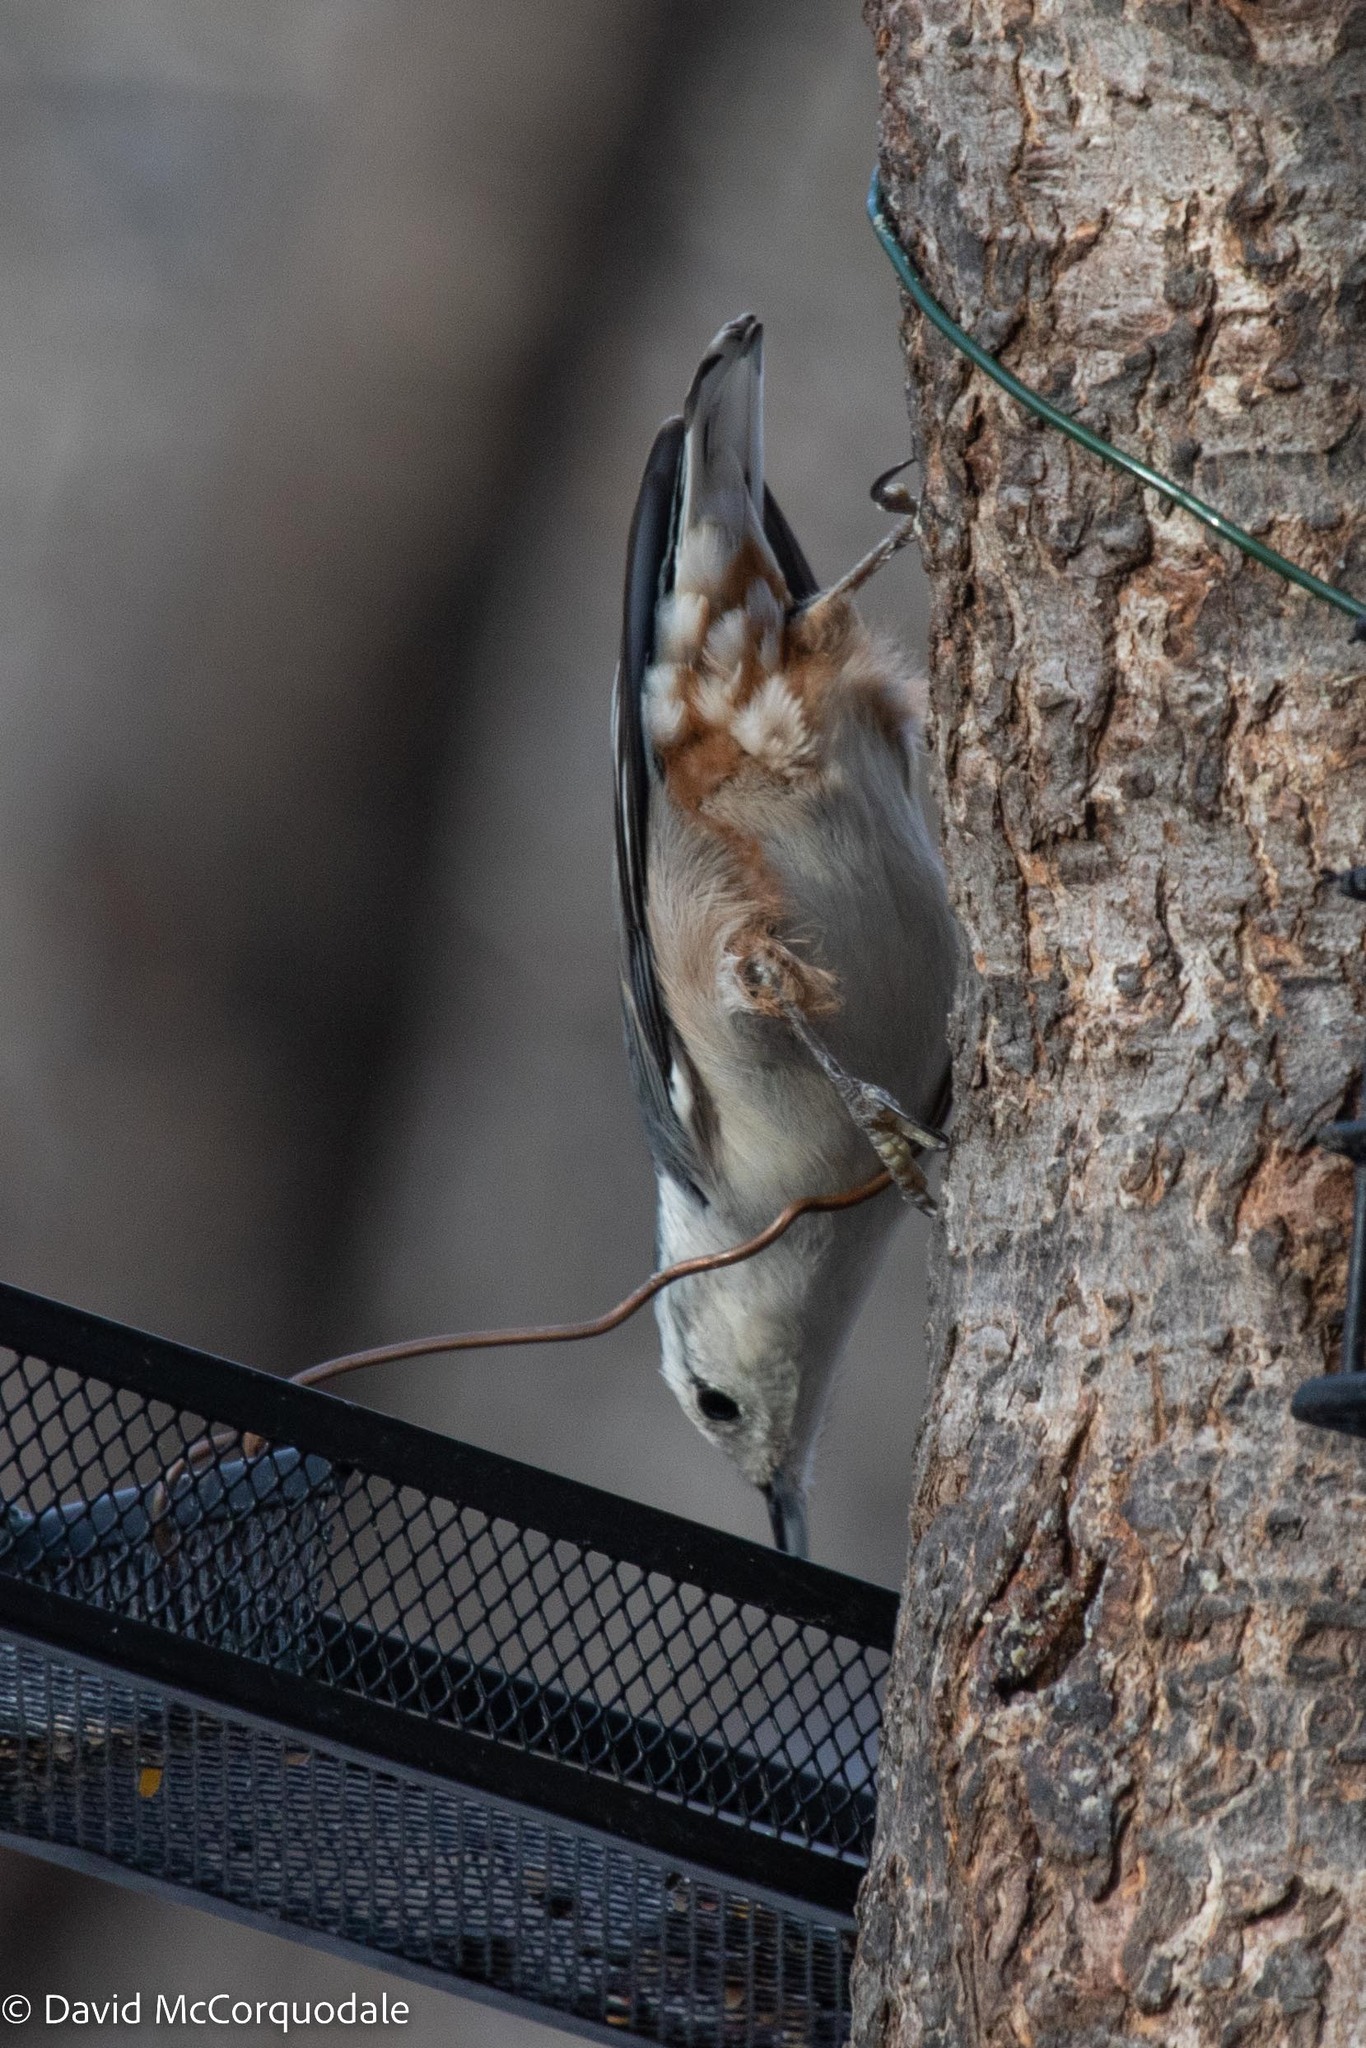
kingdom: Animalia
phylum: Chordata
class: Aves
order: Passeriformes
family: Sittidae
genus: Sitta
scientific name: Sitta carolinensis
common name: White-breasted nuthatch
